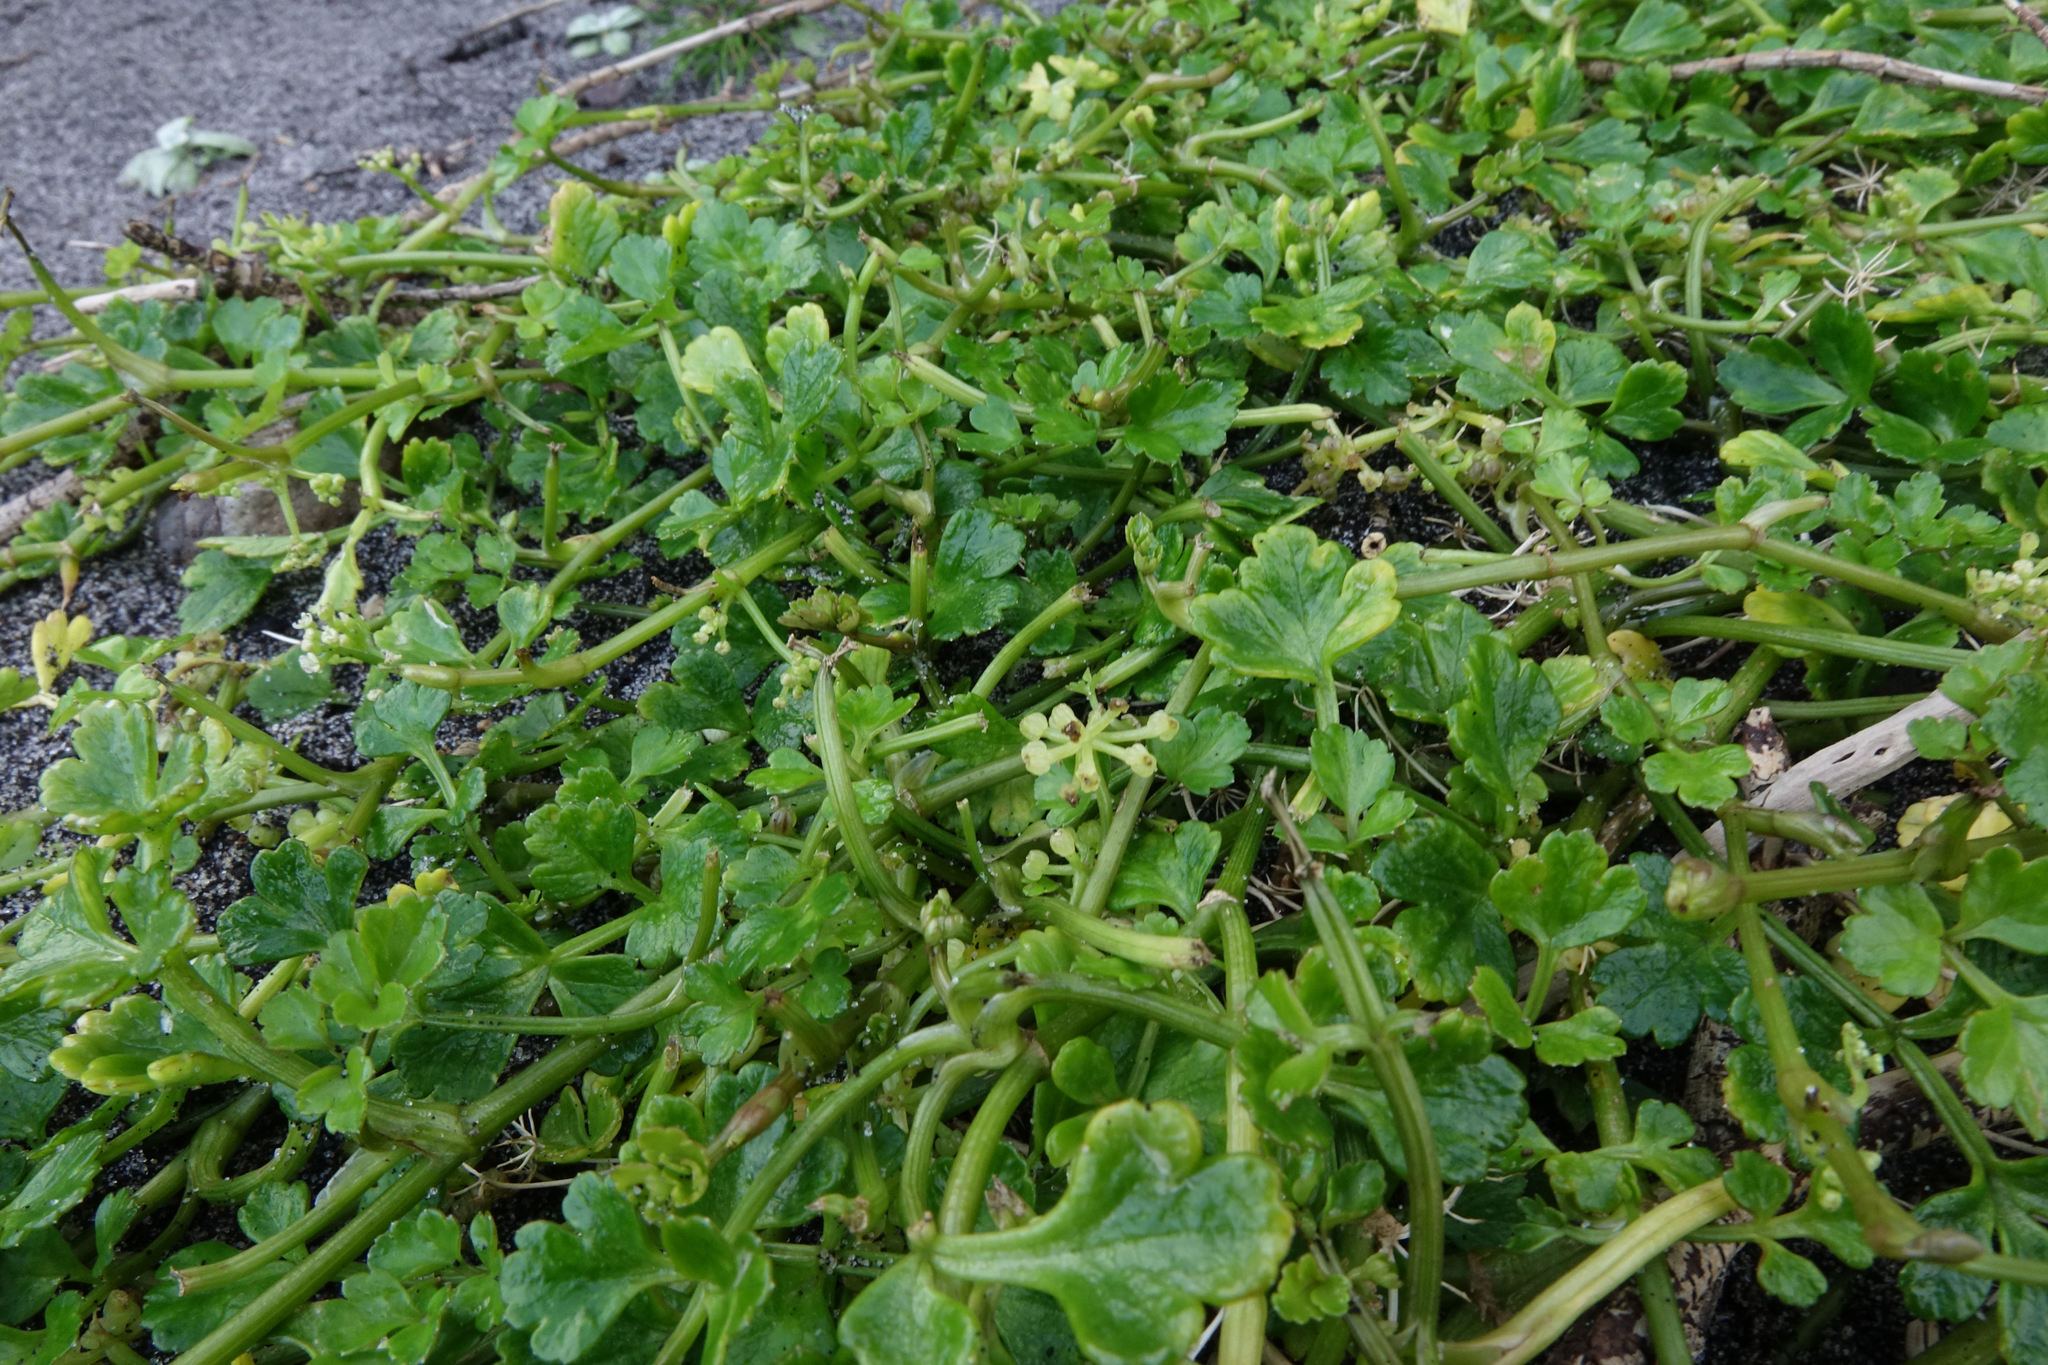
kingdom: Plantae
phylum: Tracheophyta
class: Magnoliopsida
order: Apiales
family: Apiaceae
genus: Apium
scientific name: Apium prostratum
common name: Prostrate marshwort
